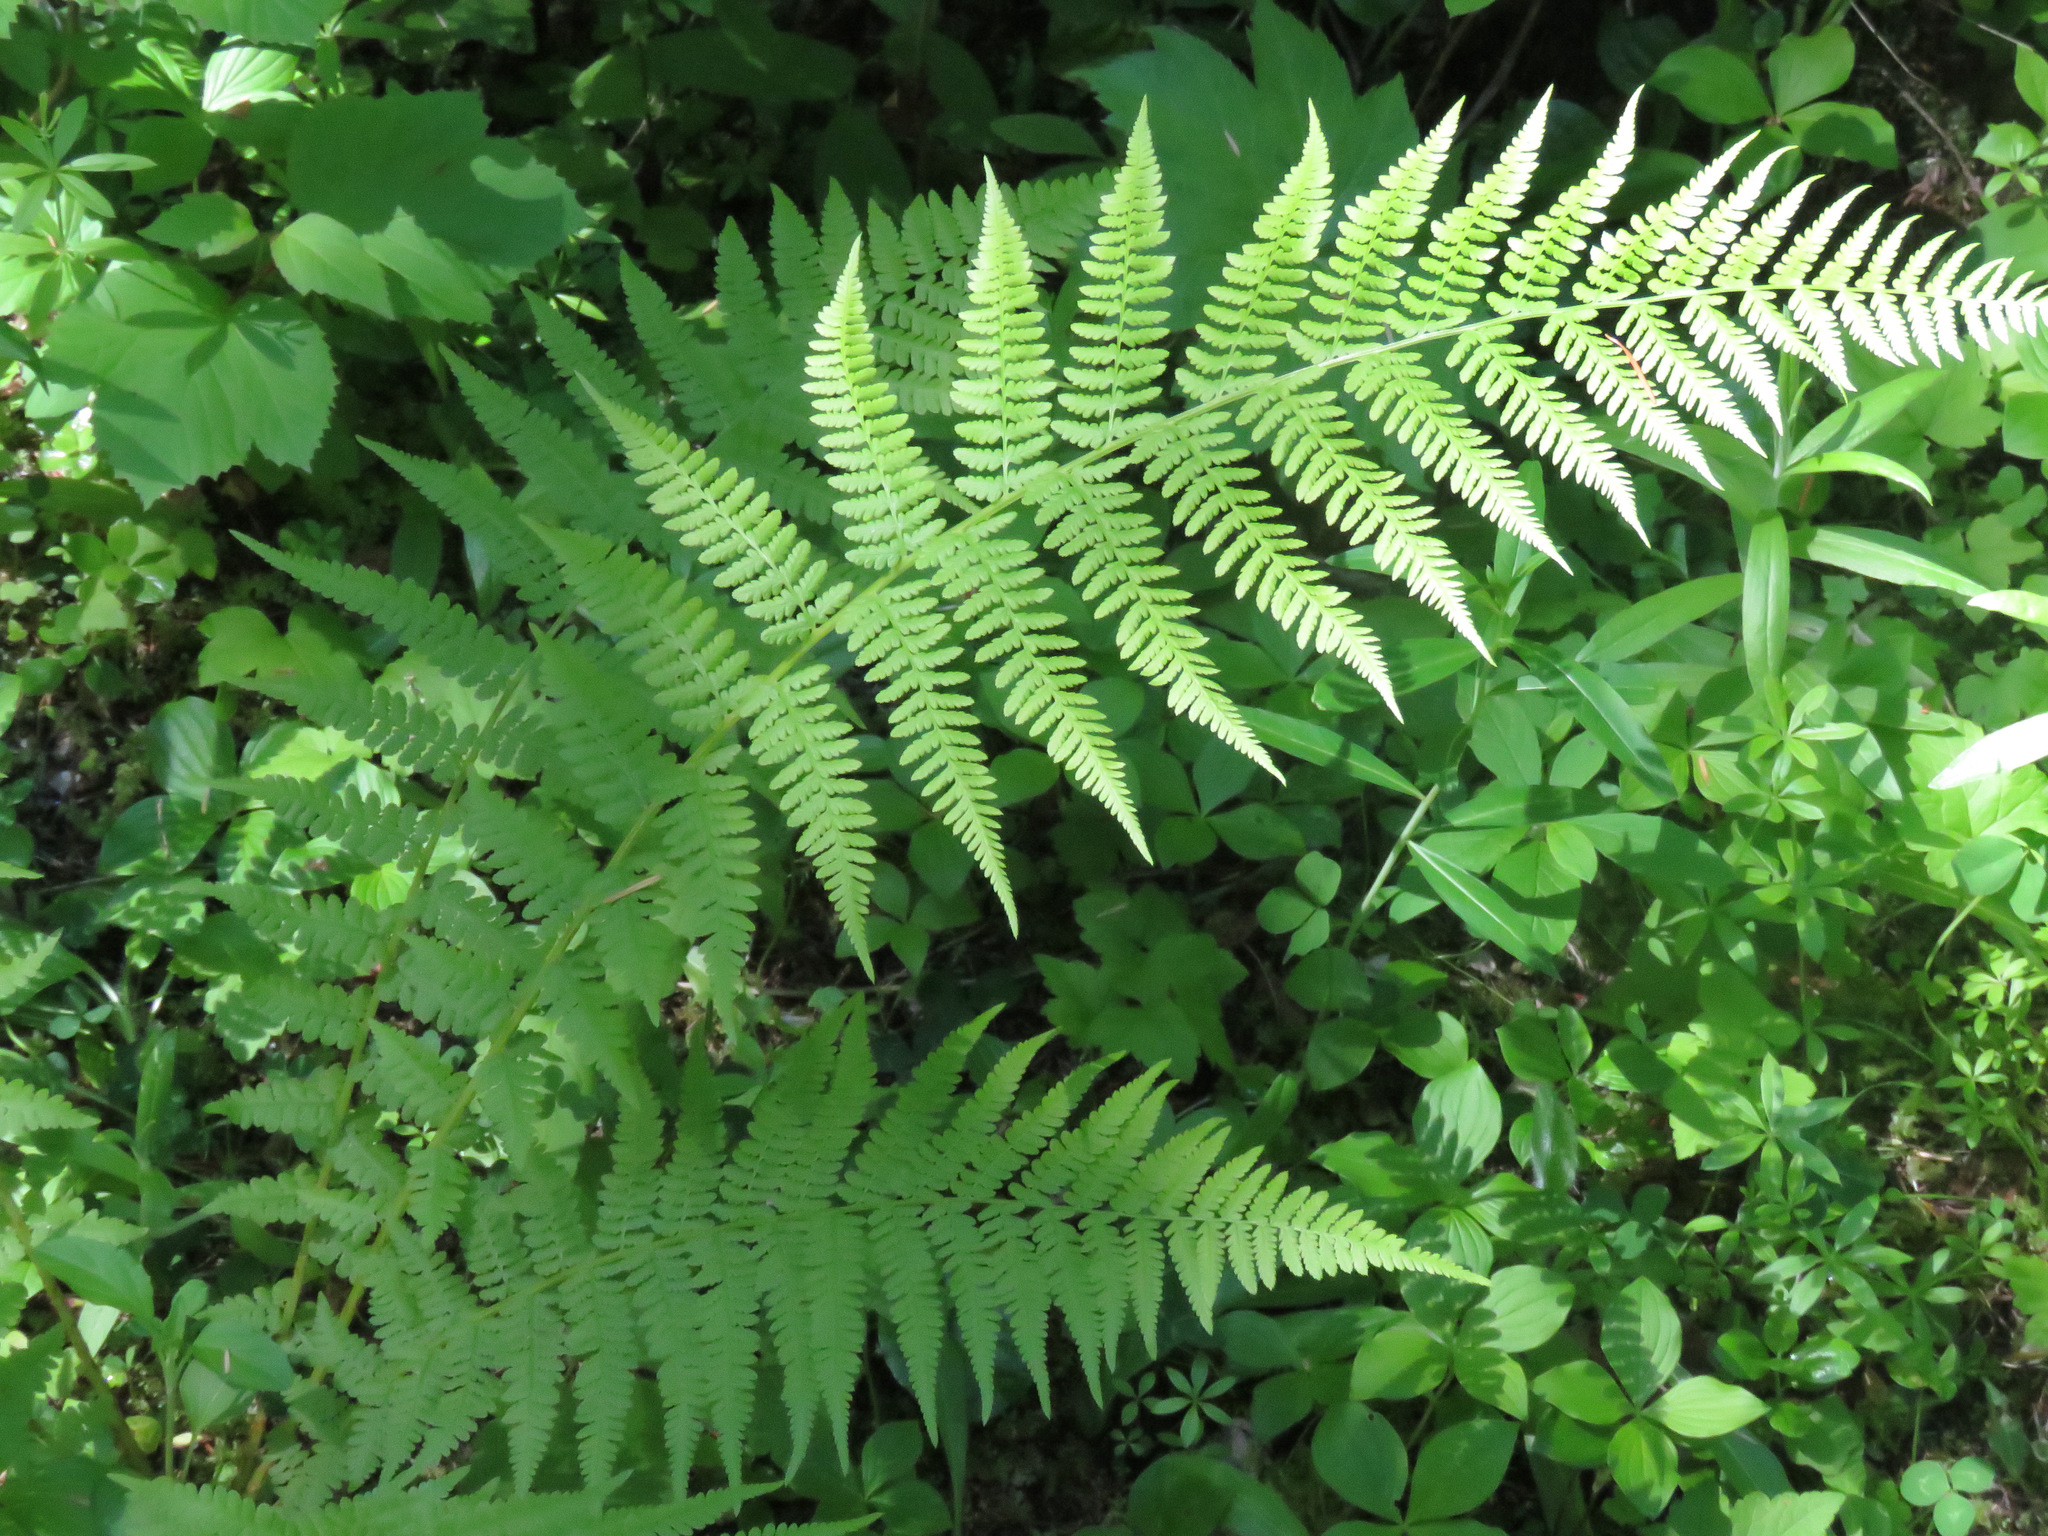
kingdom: Plantae
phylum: Tracheophyta
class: Polypodiopsida
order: Polypodiales
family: Athyriaceae
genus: Athyrium
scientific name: Athyrium filix-femina
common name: Lady fern
